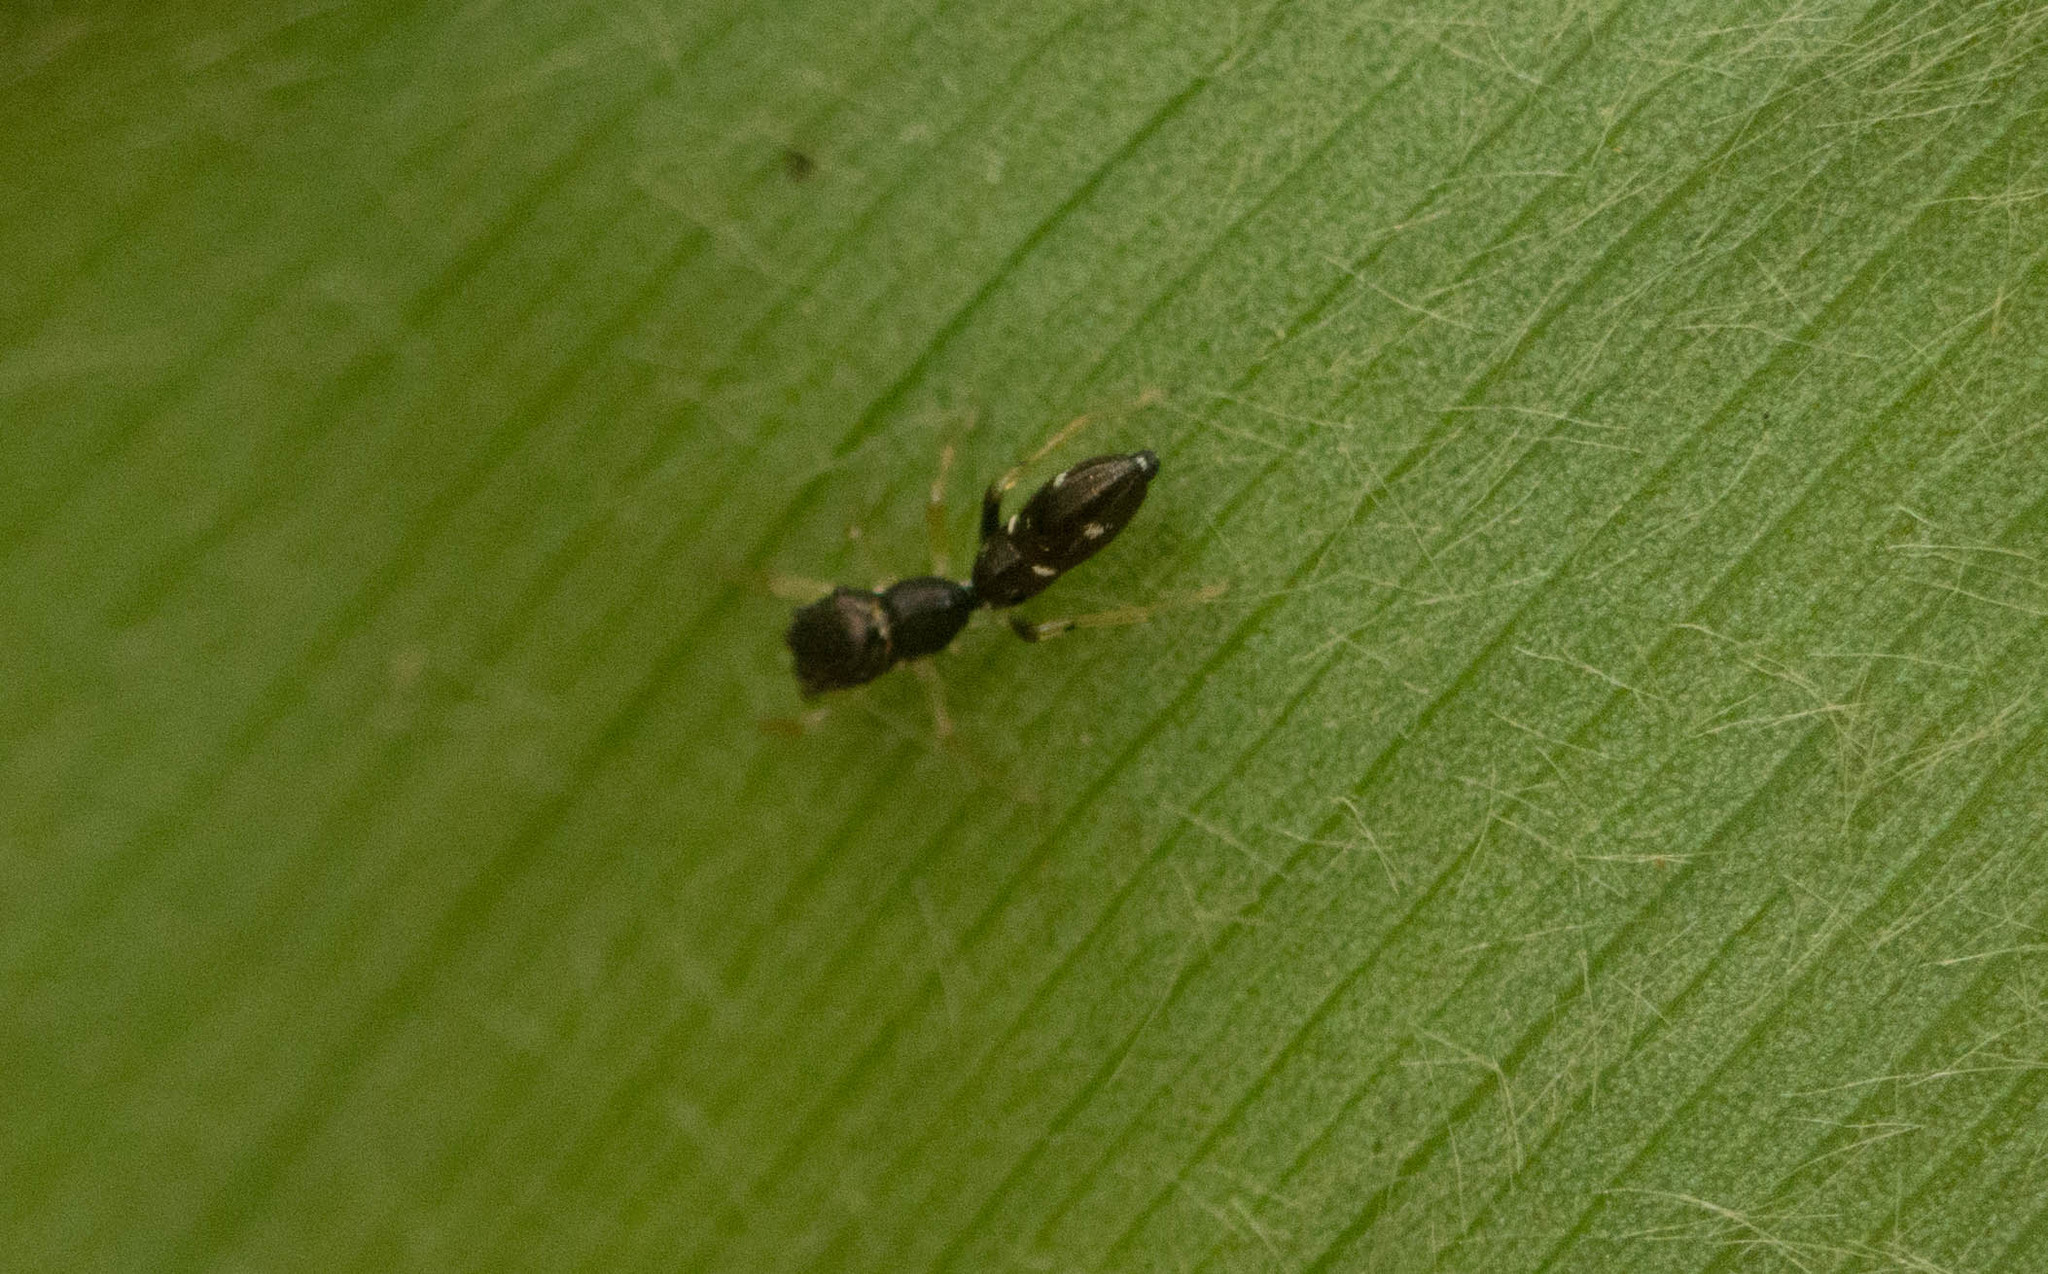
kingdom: Animalia
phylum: Arthropoda
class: Arachnida
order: Araneae
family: Salticidae
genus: Myrmarachne
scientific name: Myrmarachne nigella
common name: Jumping spider
